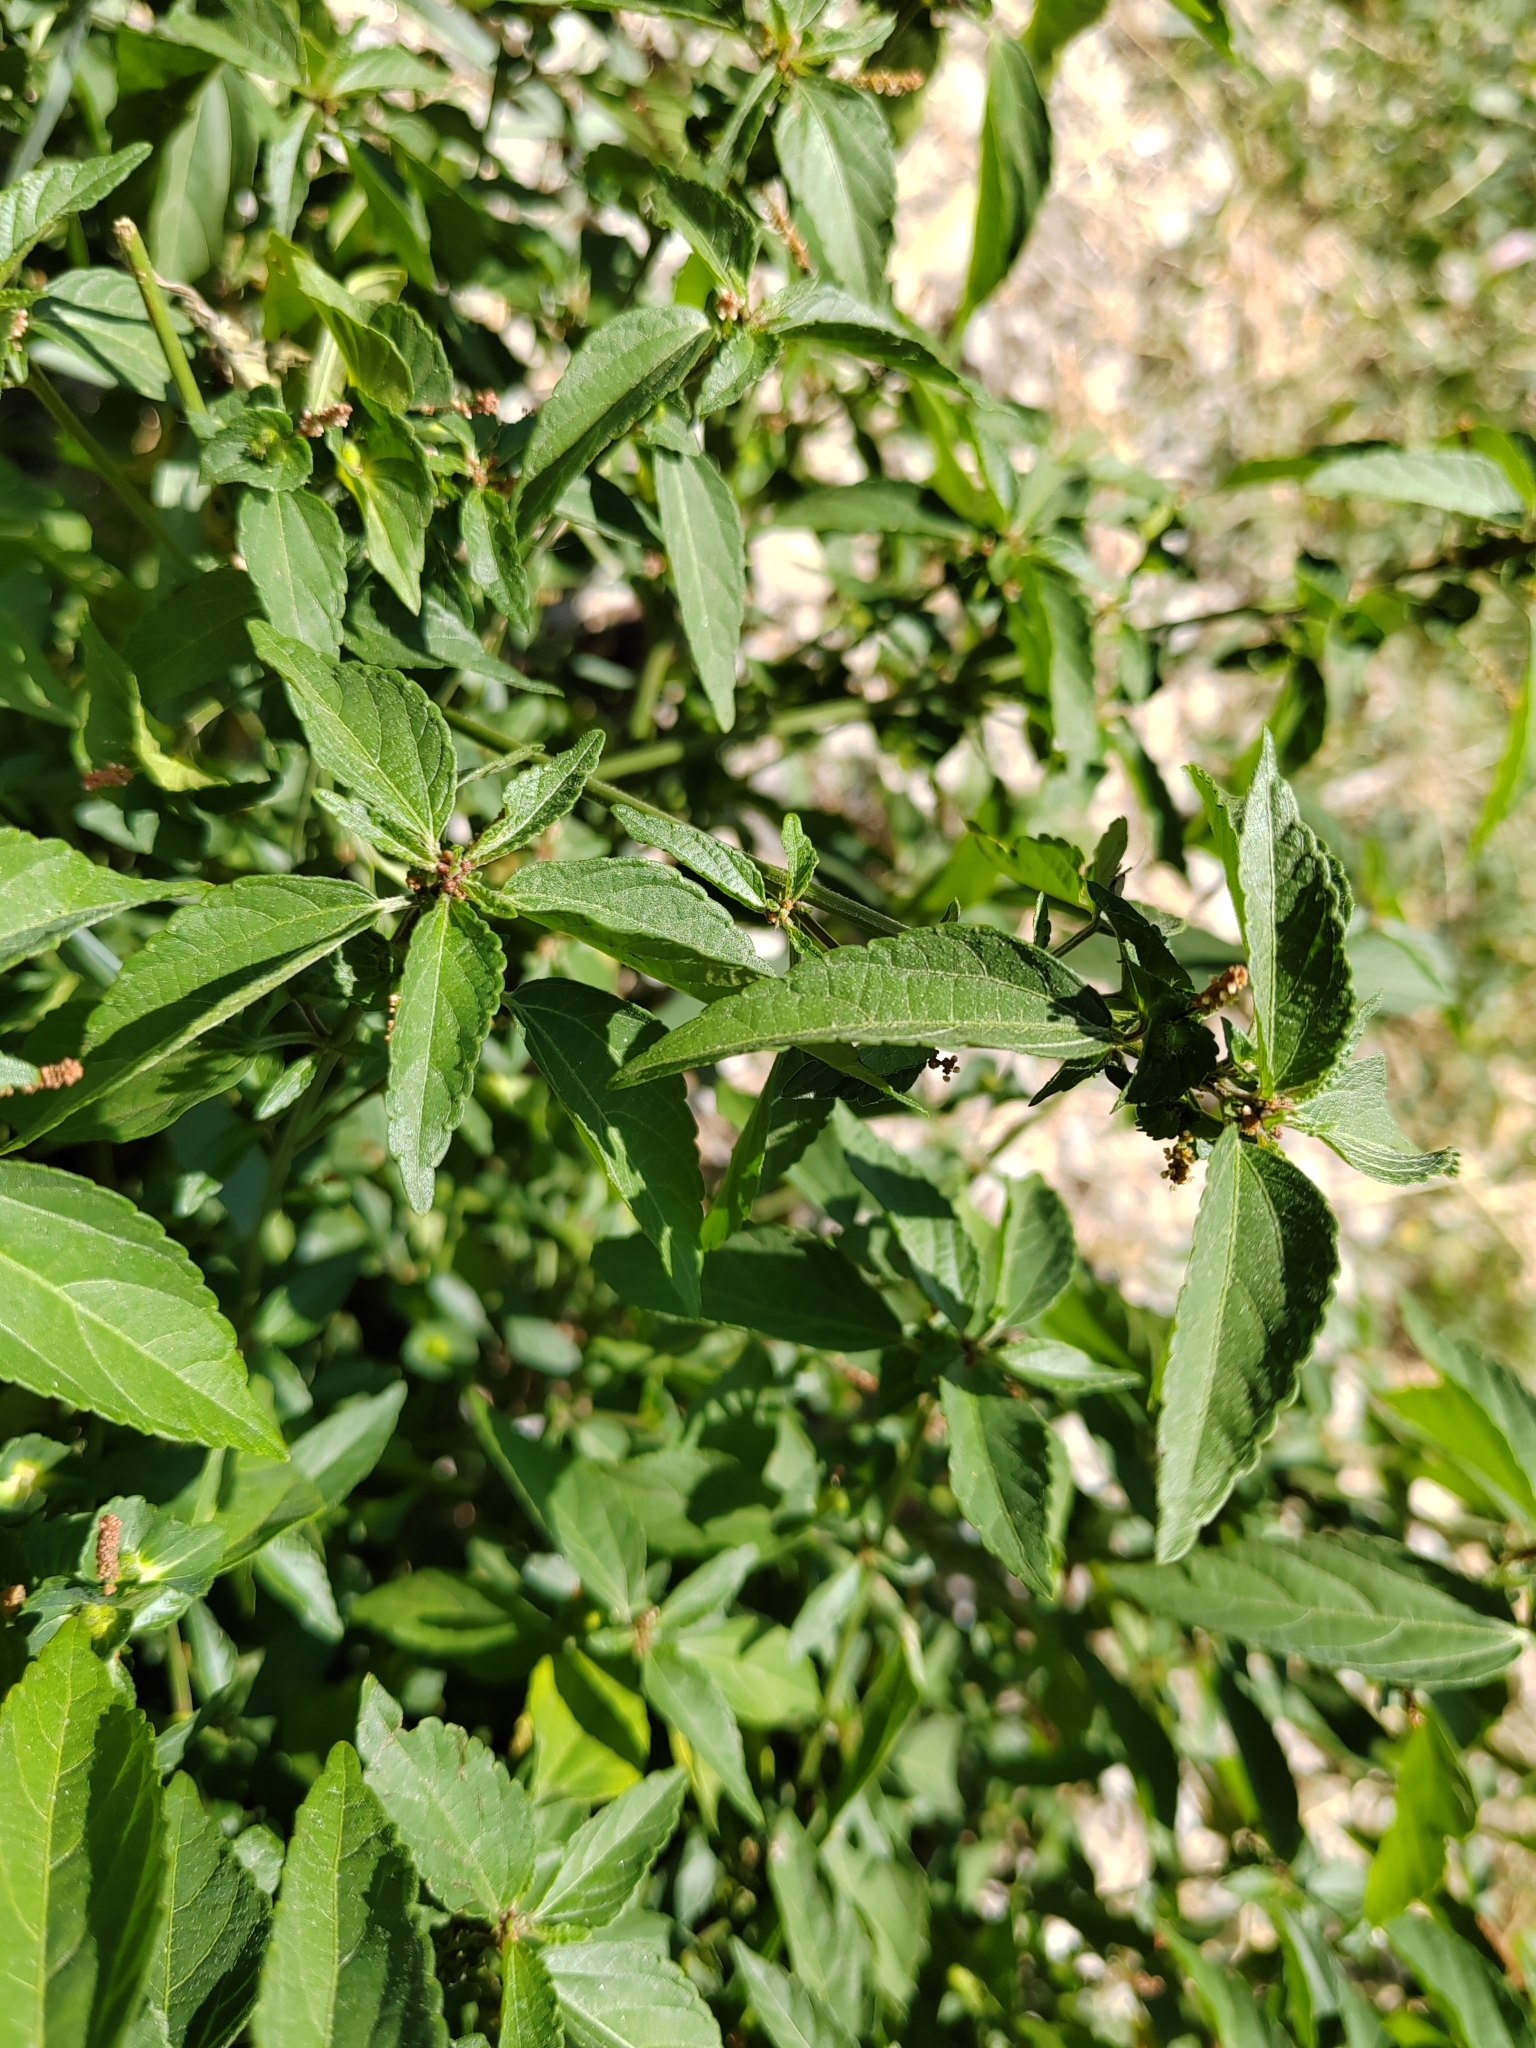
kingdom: Plantae
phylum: Tracheophyta
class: Magnoliopsida
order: Malpighiales
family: Euphorbiaceae
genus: Acalypha
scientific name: Acalypha australis
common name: Asian copperleaf
